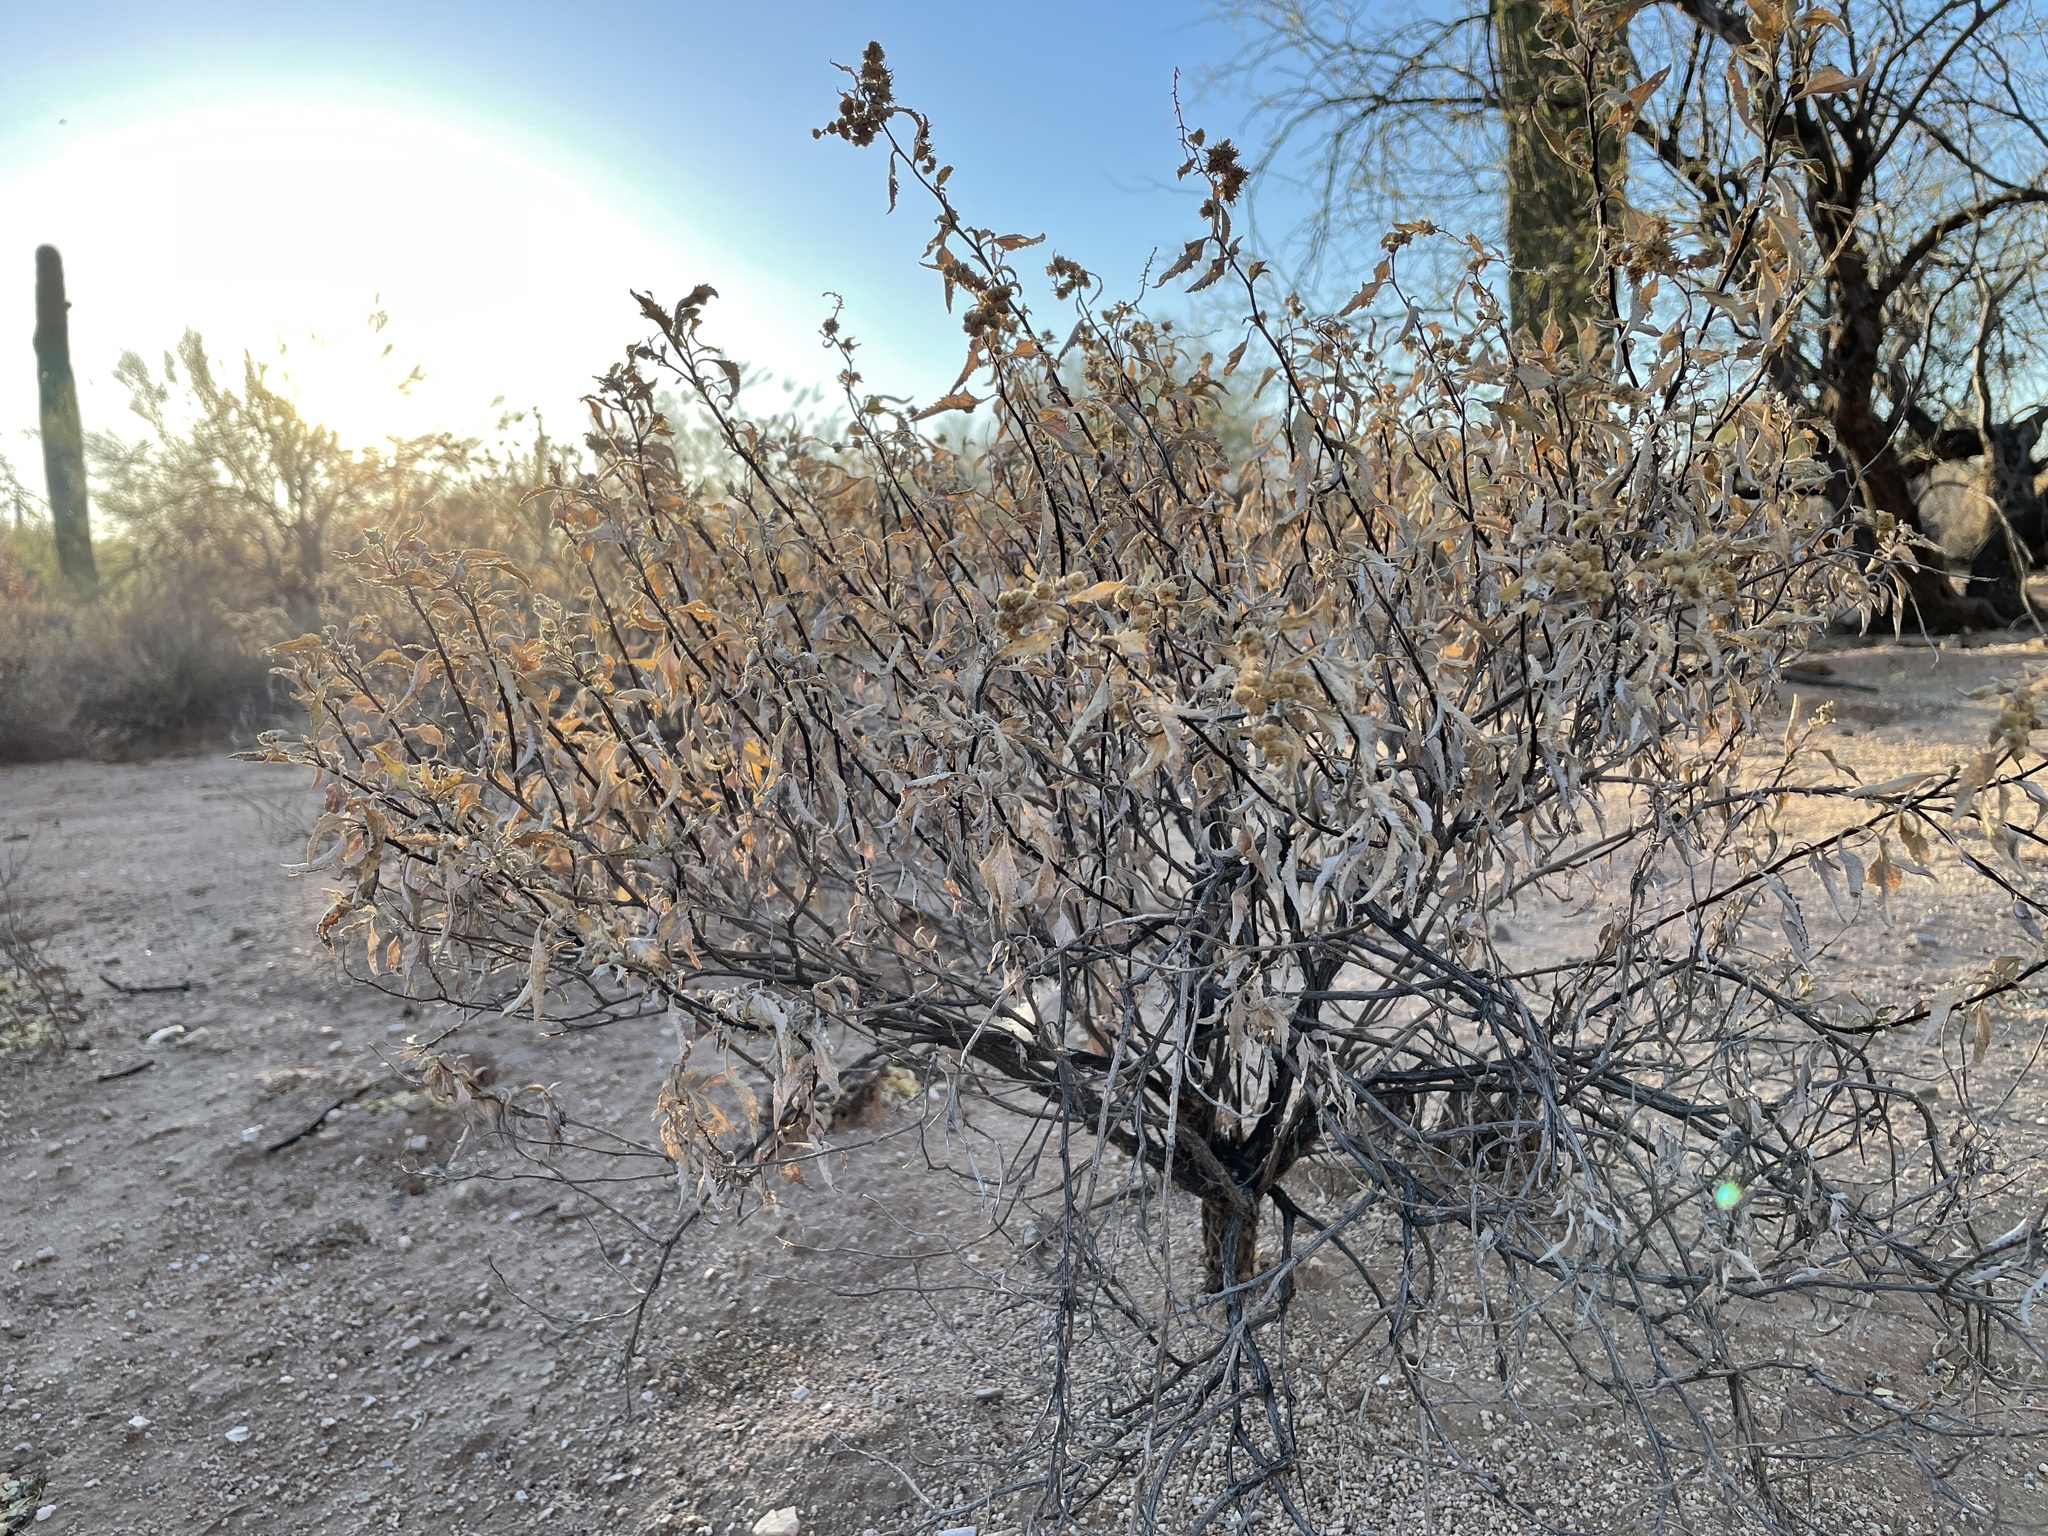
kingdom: Plantae
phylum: Tracheophyta
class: Magnoliopsida
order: Asterales
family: Asteraceae
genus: Ambrosia
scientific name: Ambrosia deltoidea
